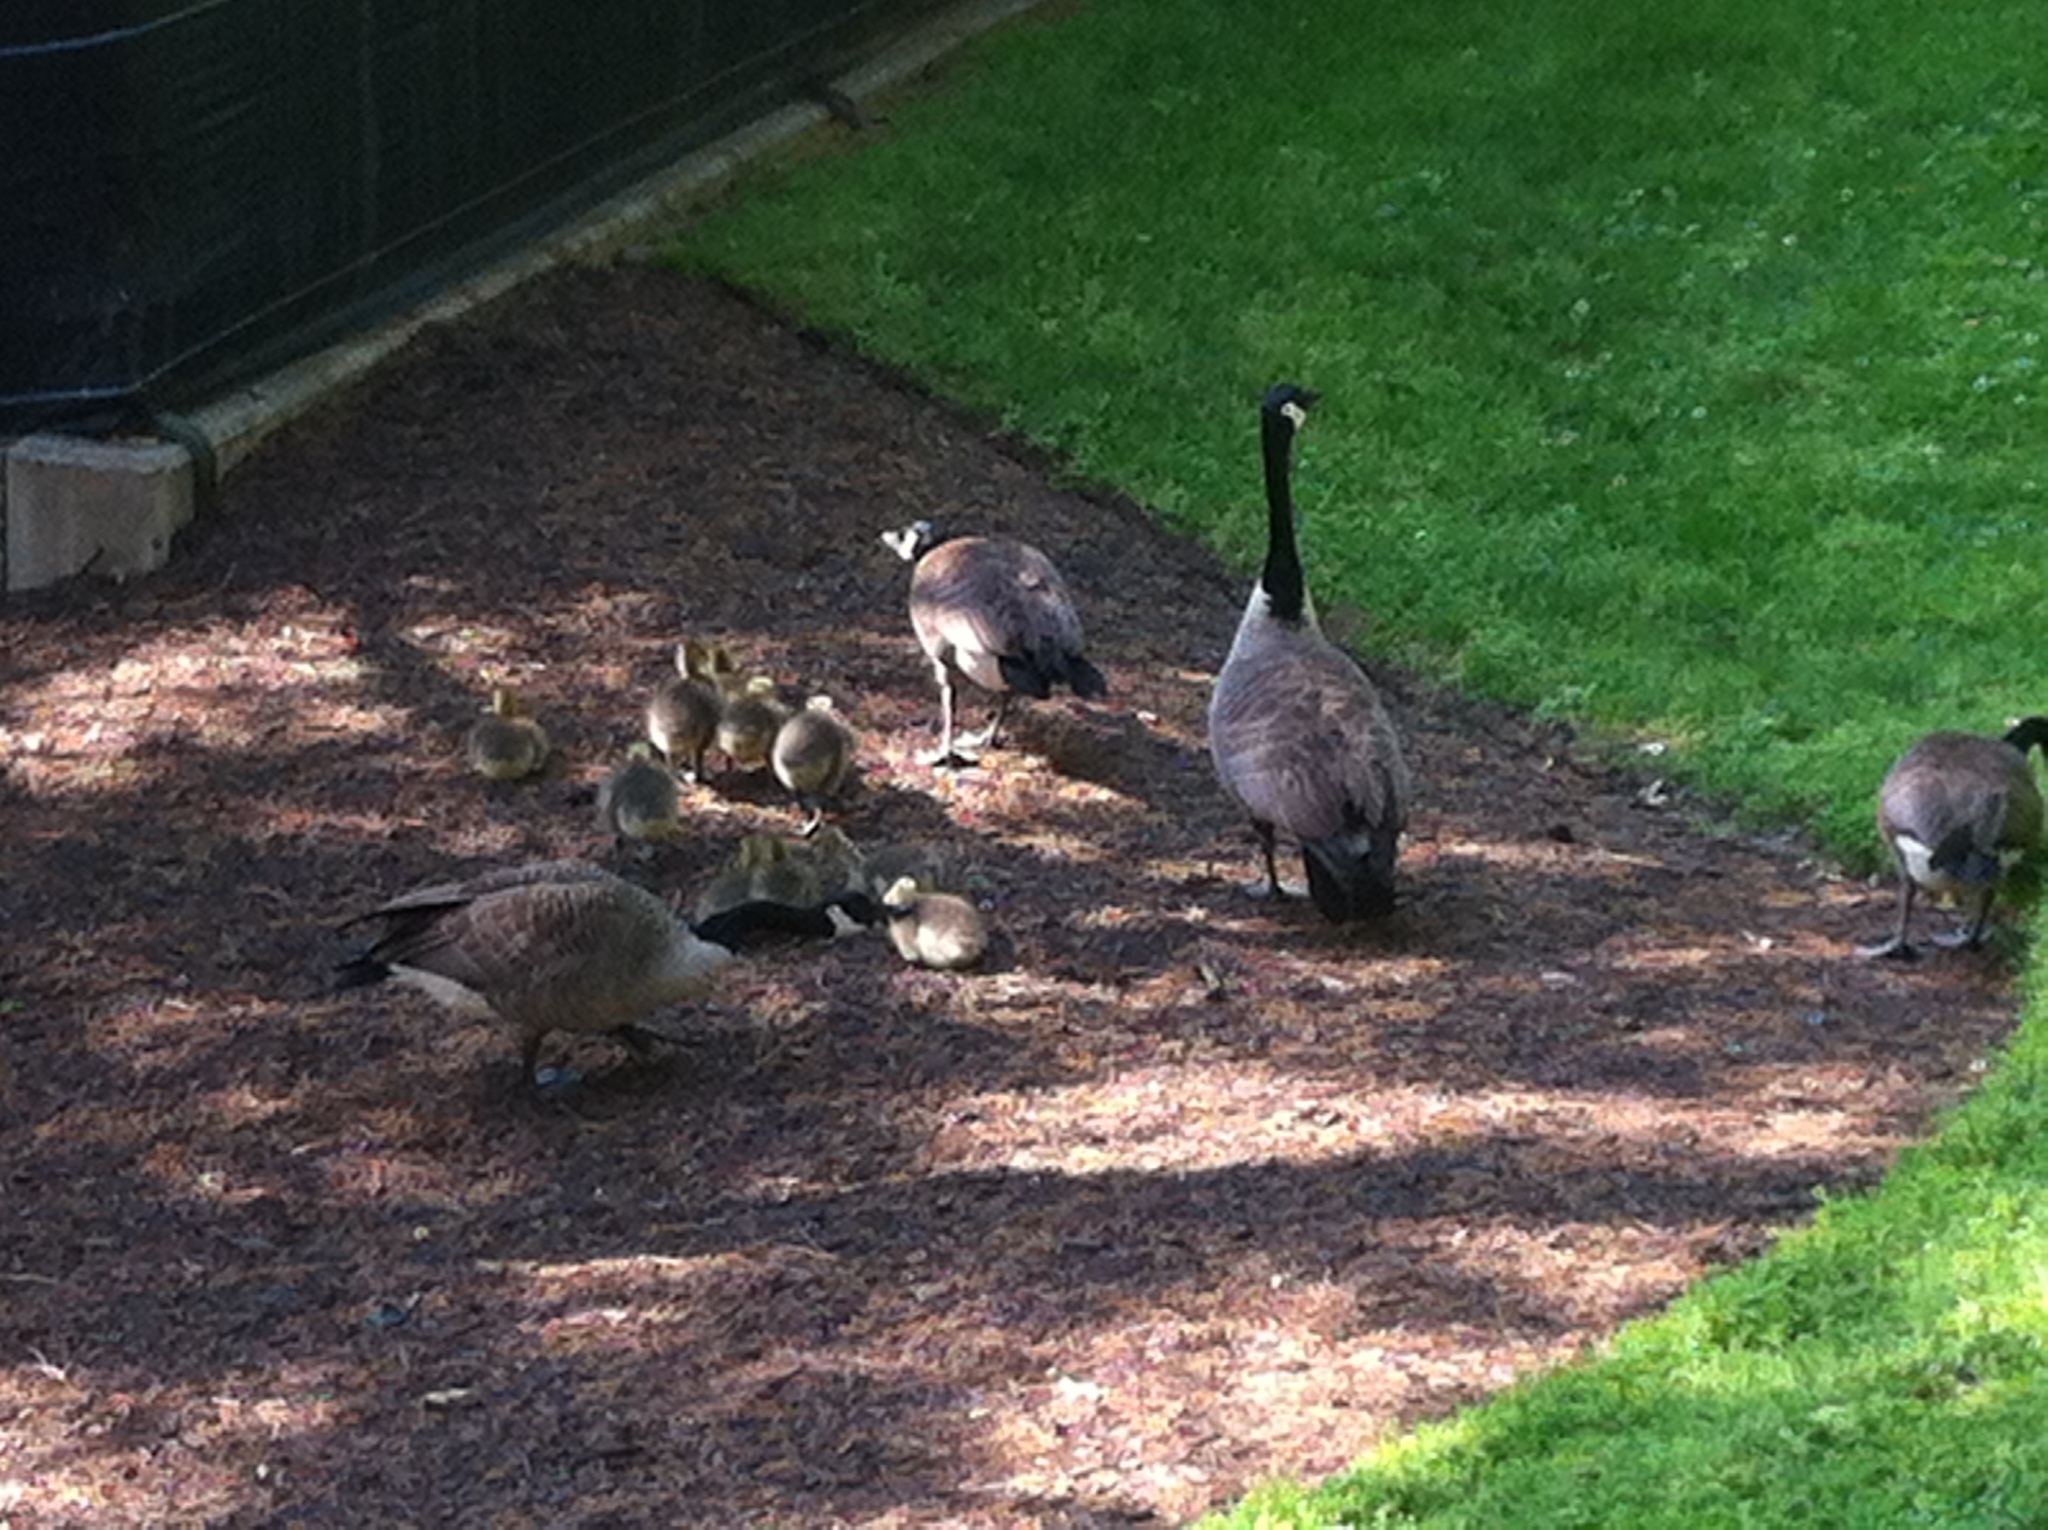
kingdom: Animalia
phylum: Chordata
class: Aves
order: Anseriformes
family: Anatidae
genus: Branta
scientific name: Branta canadensis
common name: Canada goose
